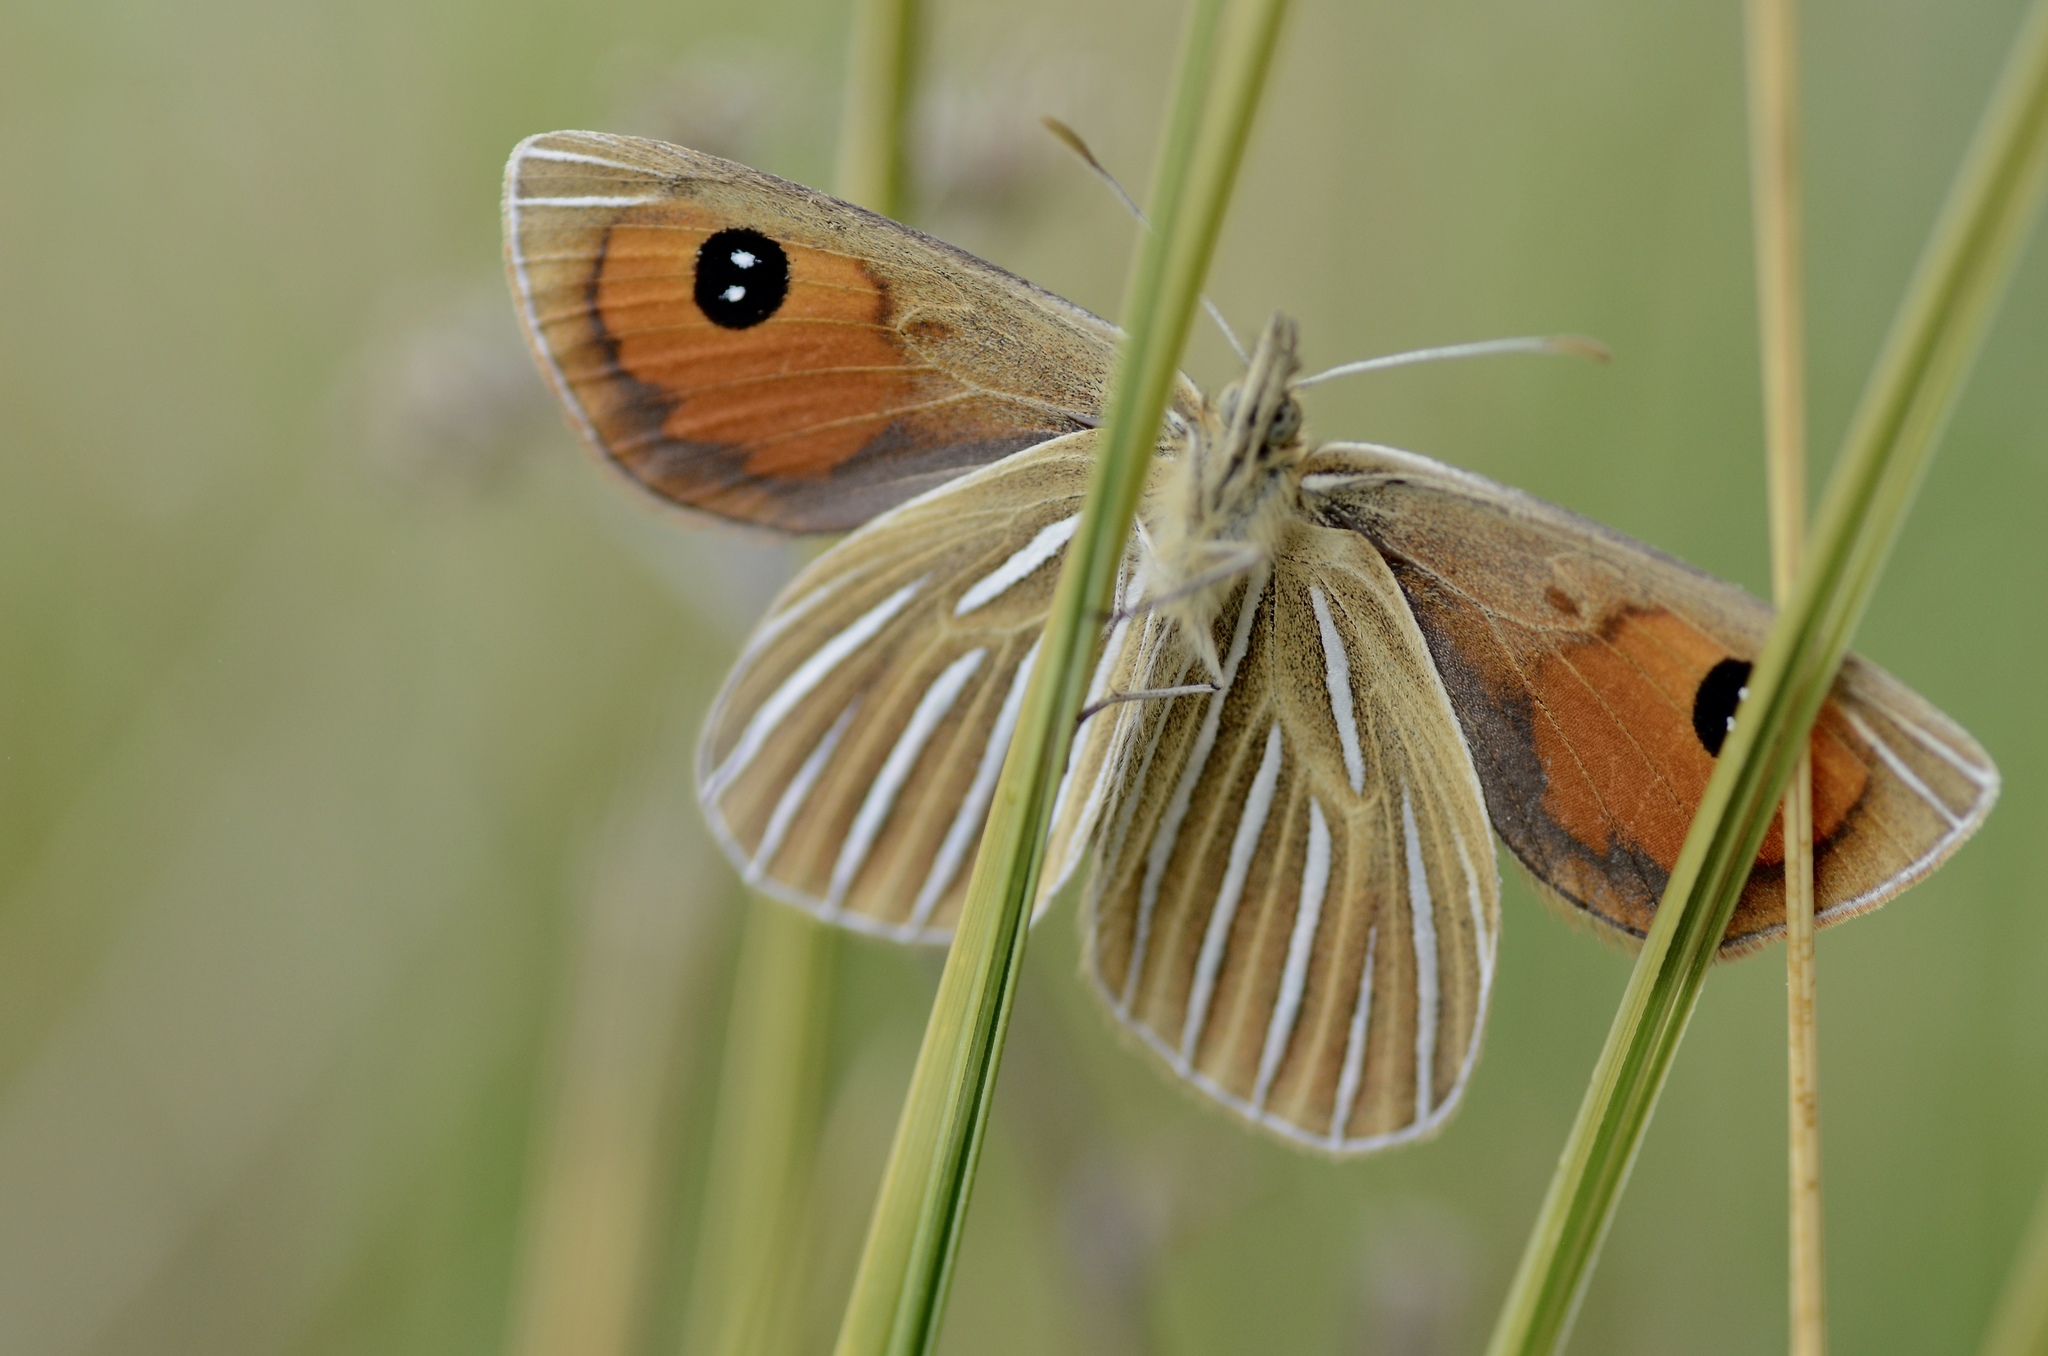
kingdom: Animalia
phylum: Arthropoda
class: Insecta
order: Lepidoptera
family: Nymphalidae
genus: Argyrophenga
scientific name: Argyrophenga antipodum
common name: Common tussock butterfly
